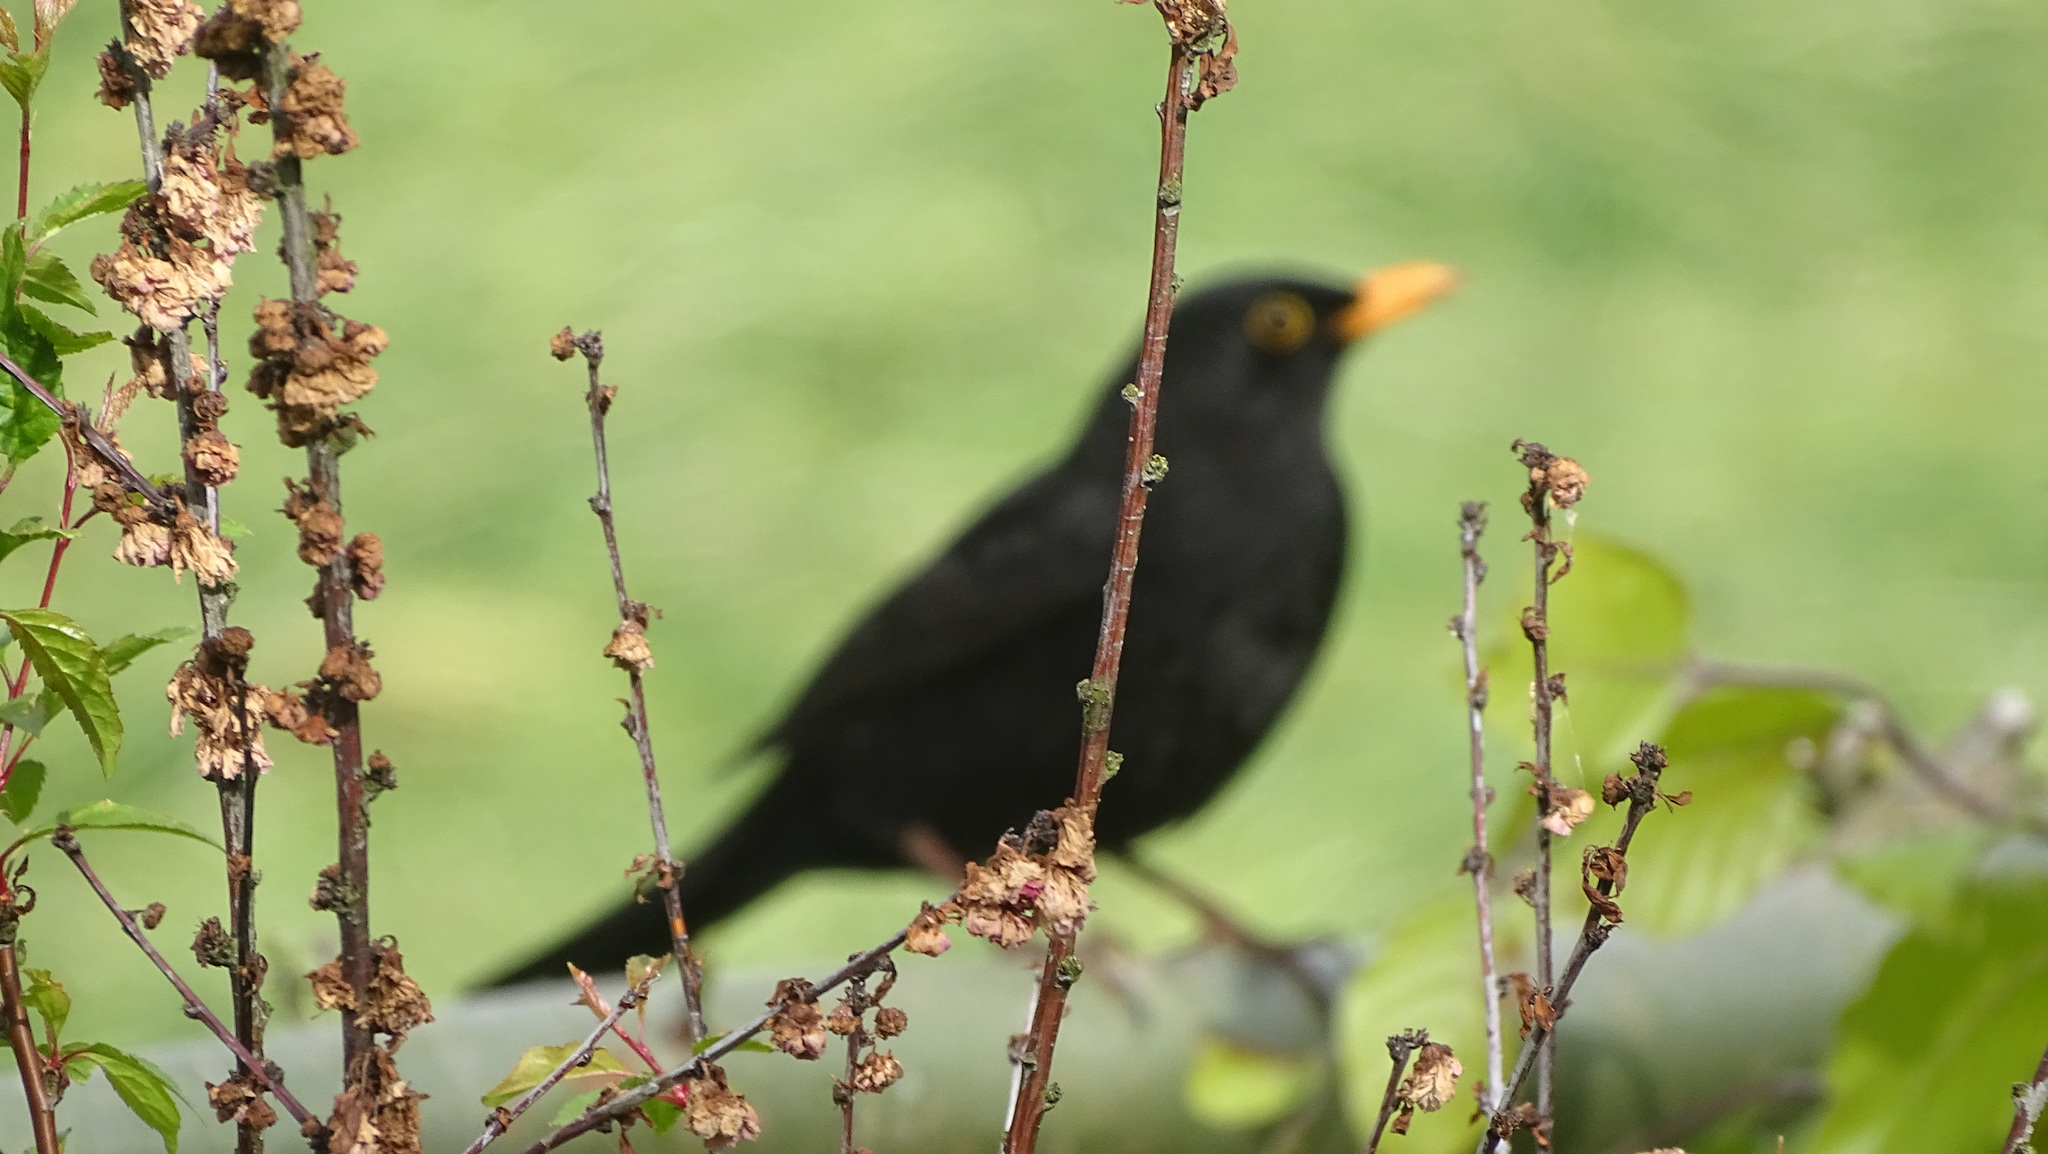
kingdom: Animalia
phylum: Chordata
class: Aves
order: Passeriformes
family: Turdidae
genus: Turdus
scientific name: Turdus merula
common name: Common blackbird
